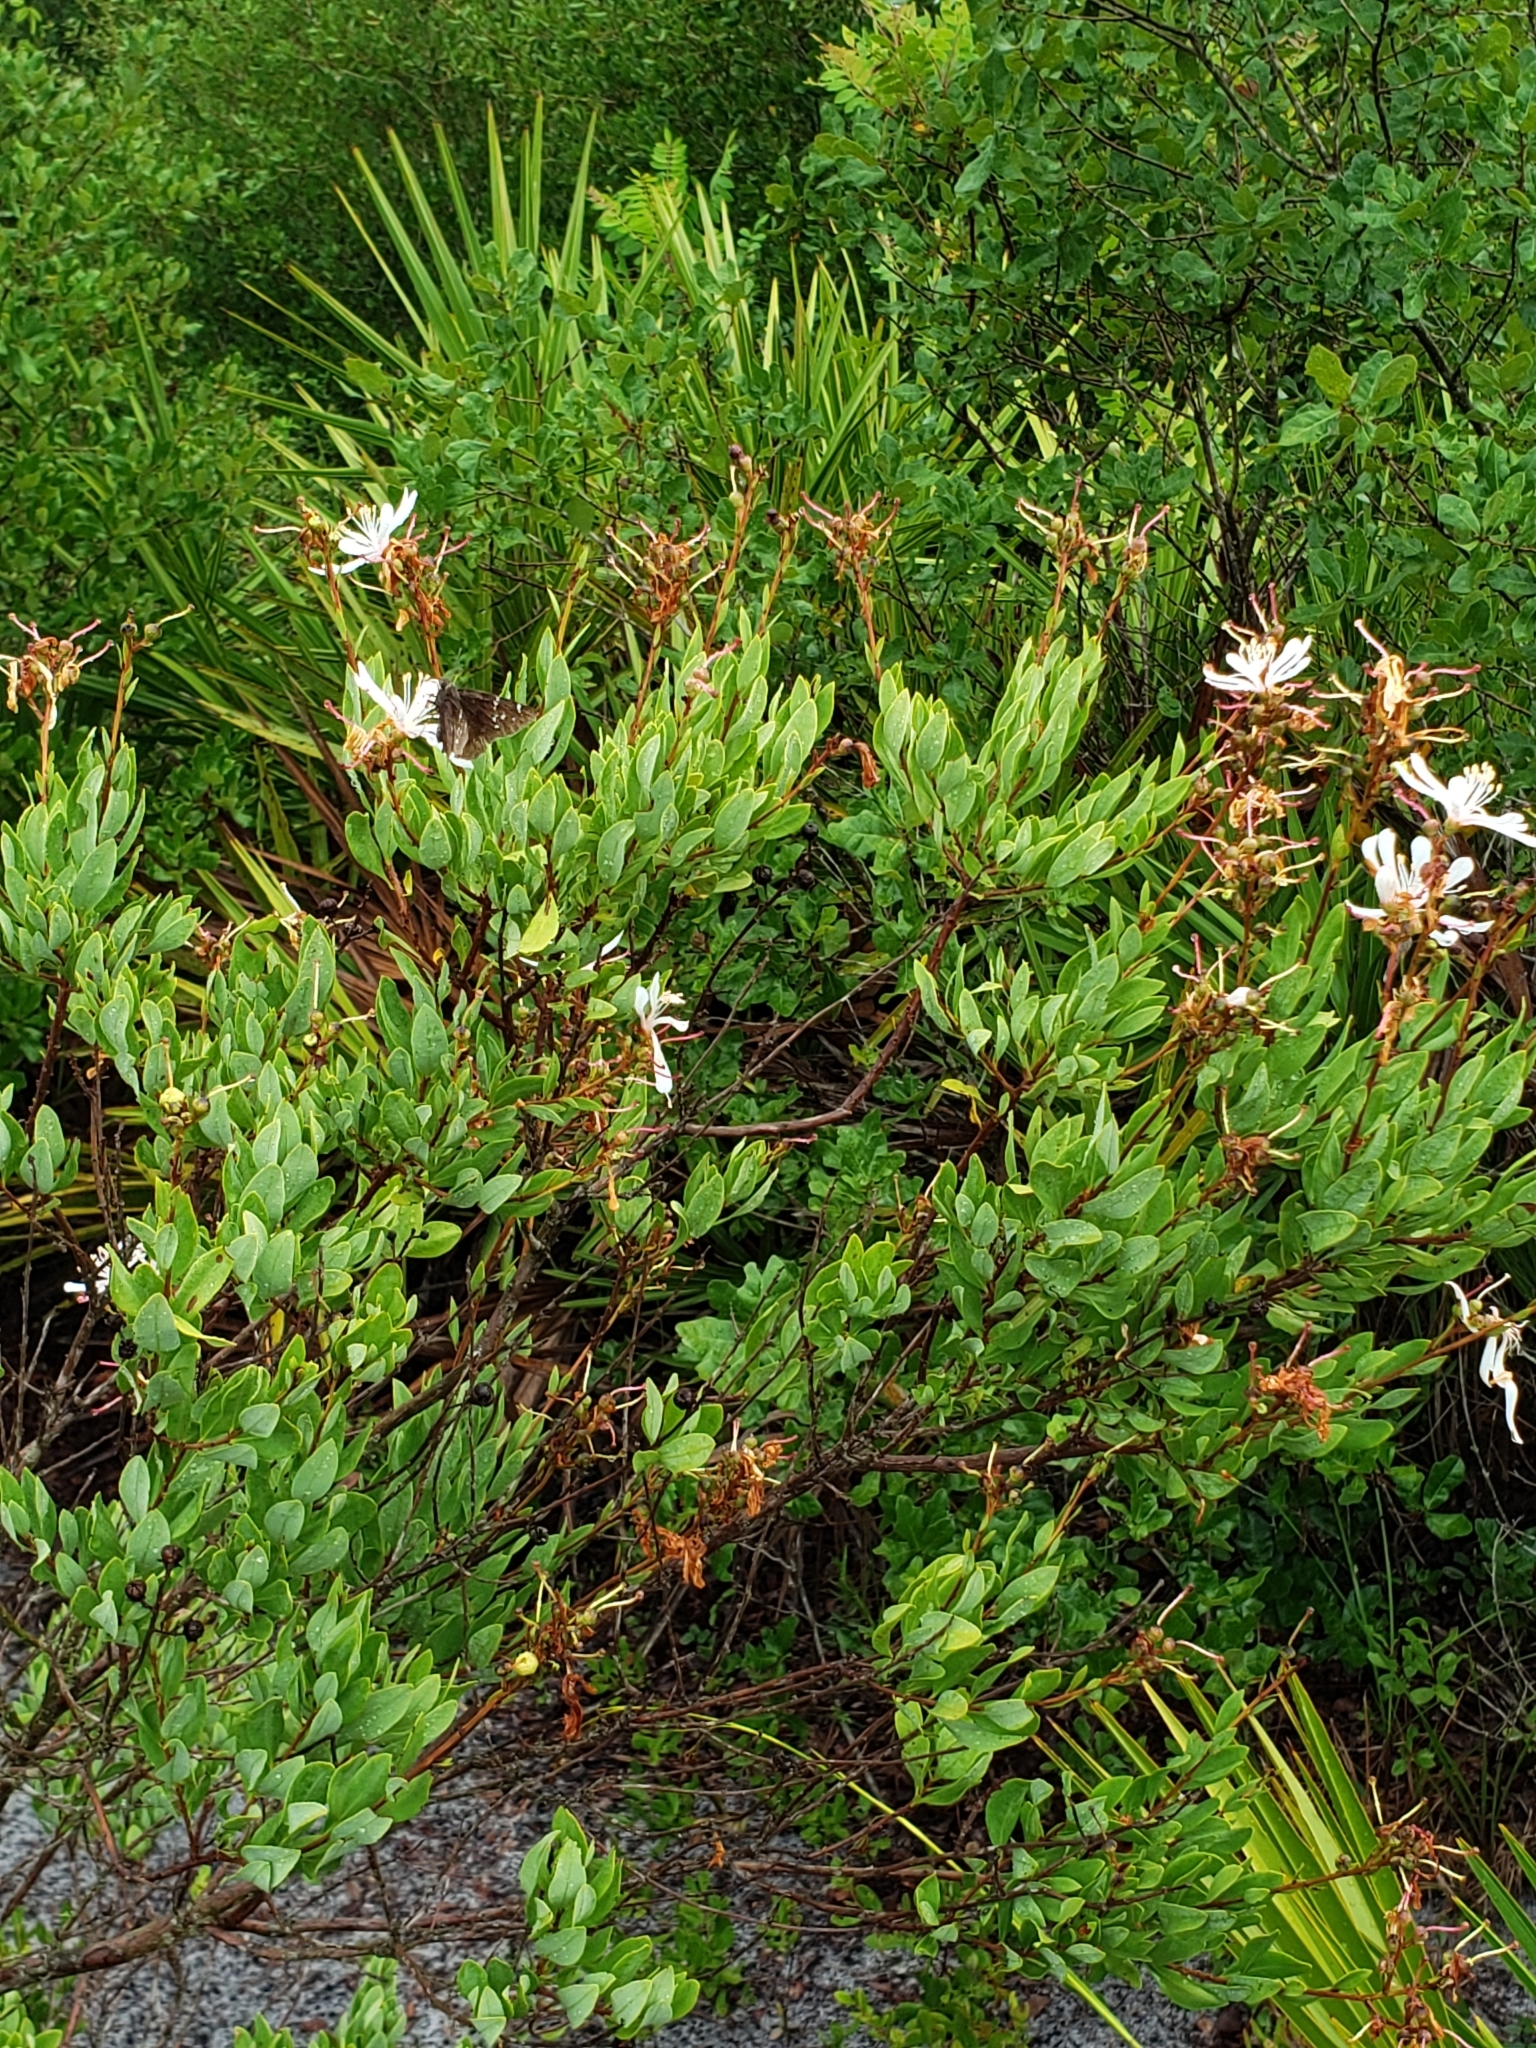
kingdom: Plantae
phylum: Tracheophyta
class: Magnoliopsida
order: Ericales
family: Ericaceae
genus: Bejaria
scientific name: Bejaria racemosa
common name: Tarflower
